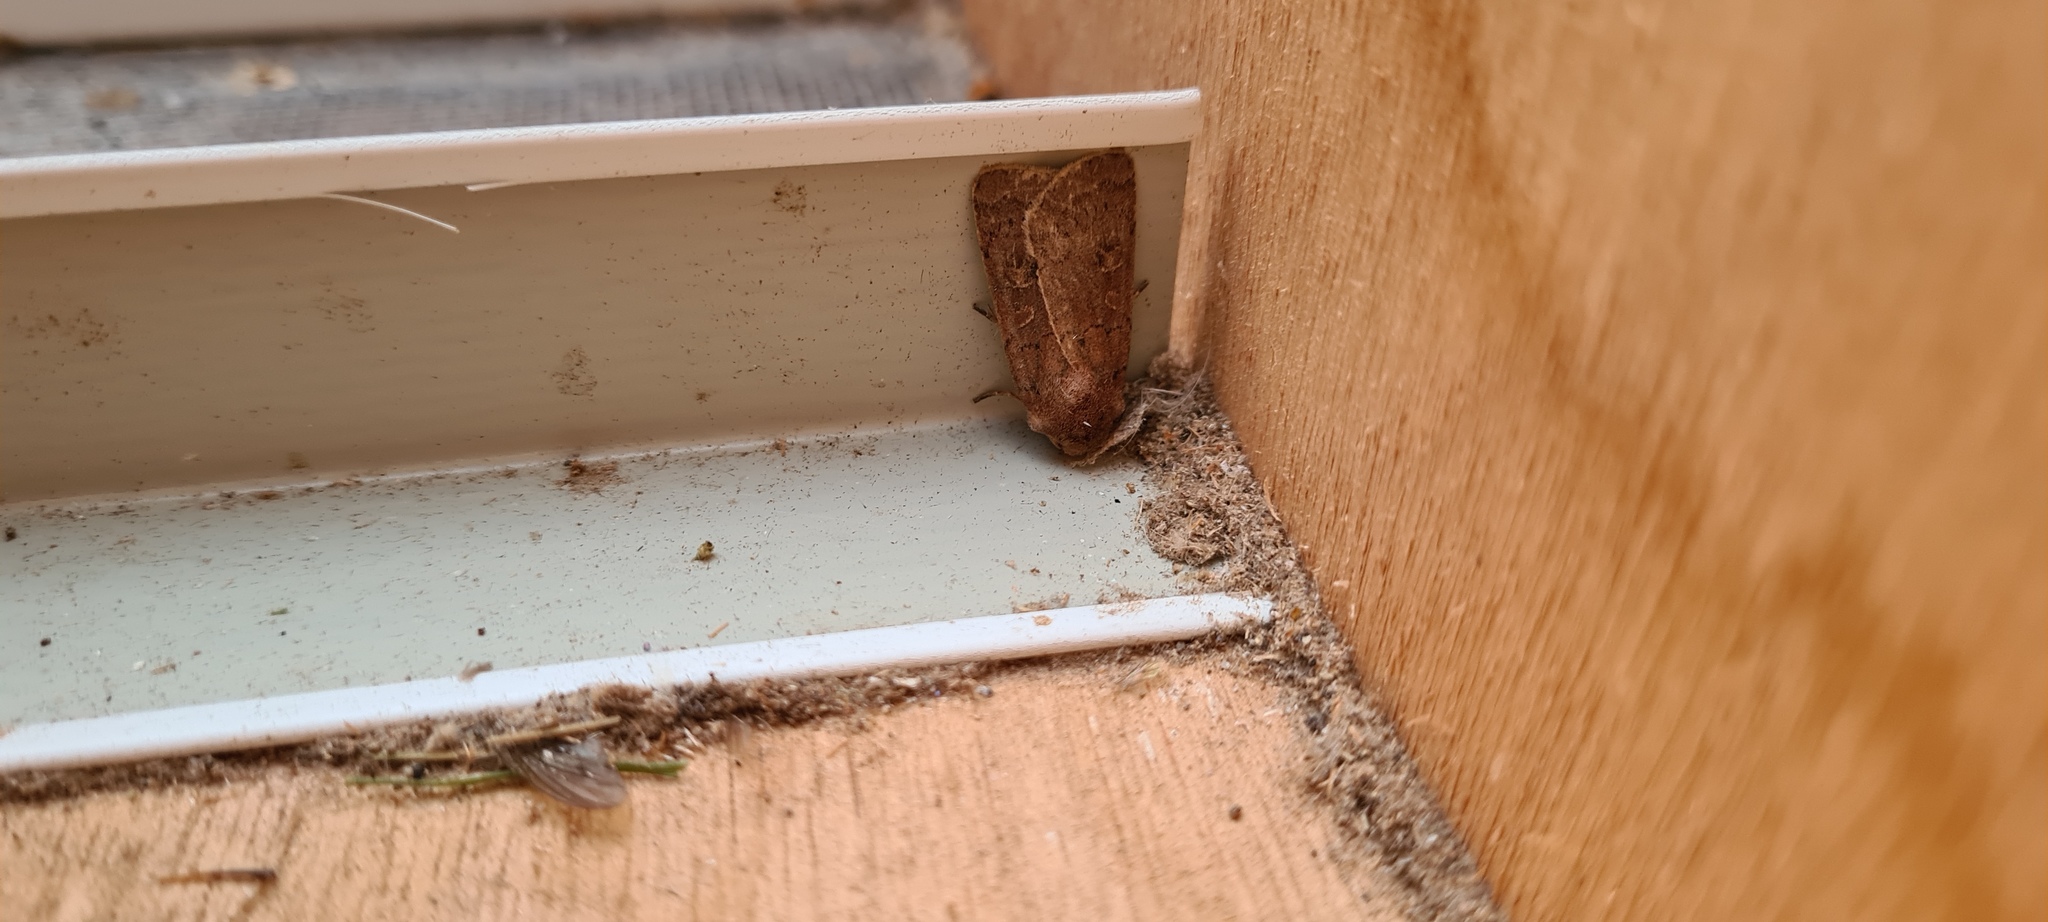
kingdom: Animalia
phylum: Arthropoda
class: Insecta
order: Lepidoptera
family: Noctuidae
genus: Xestia
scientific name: Xestia xanthographa
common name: Square-spot rustic
